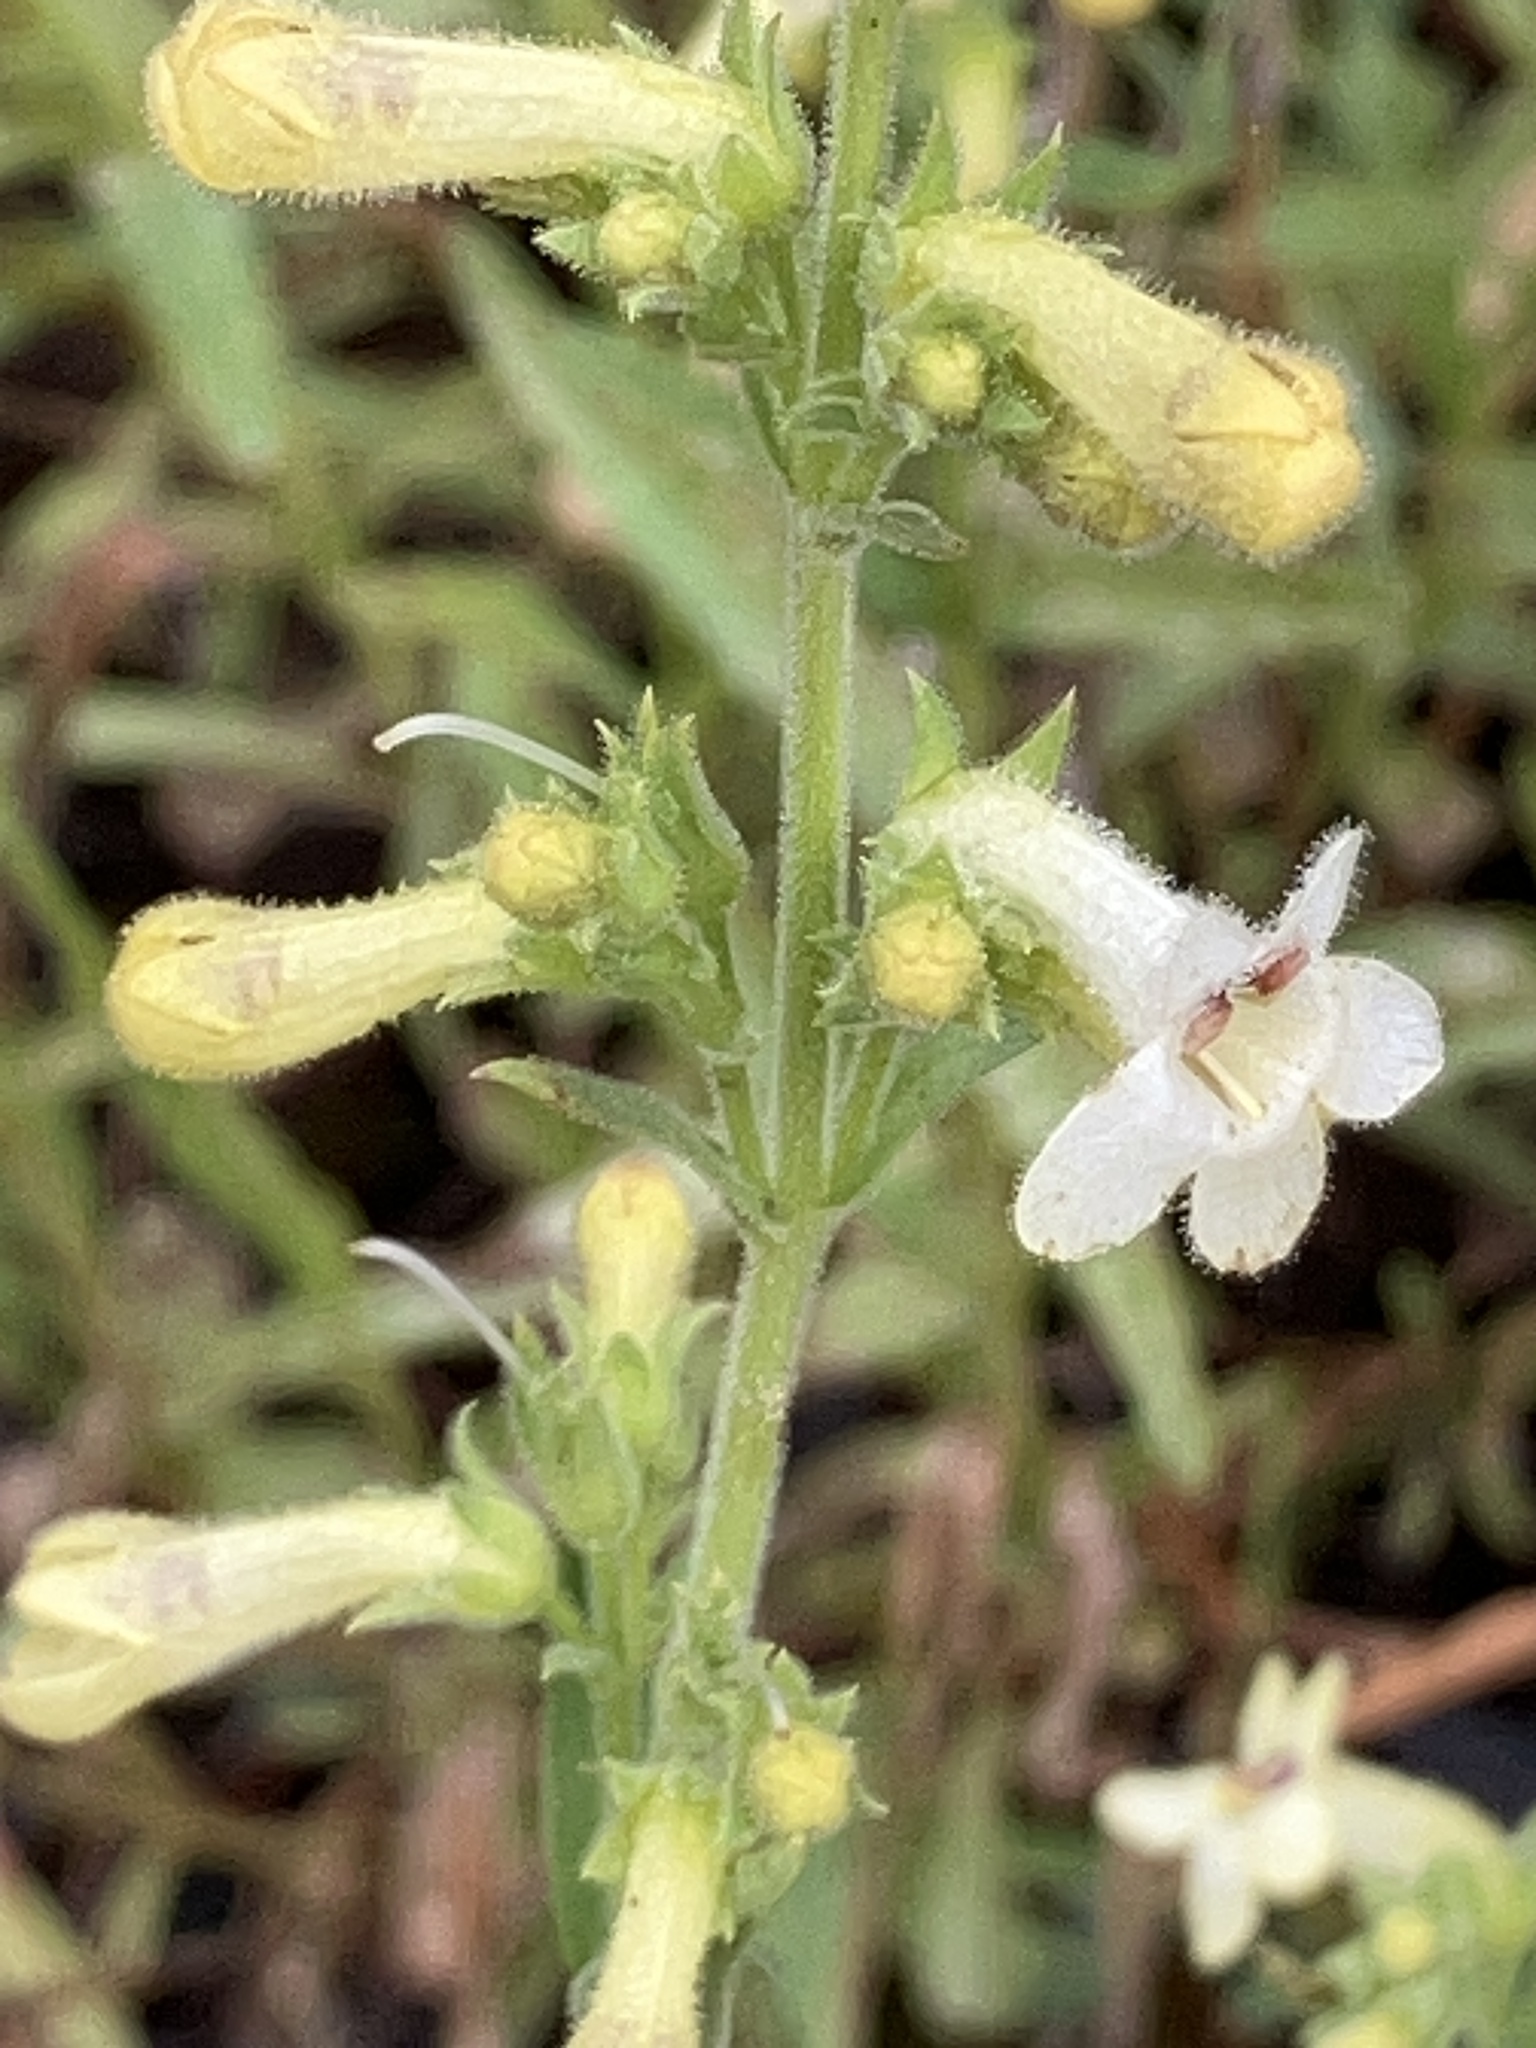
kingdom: Plantae
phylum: Tracheophyta
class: Magnoliopsida
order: Lamiales
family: Plantaginaceae
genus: Penstemon
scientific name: Penstemon deustus
